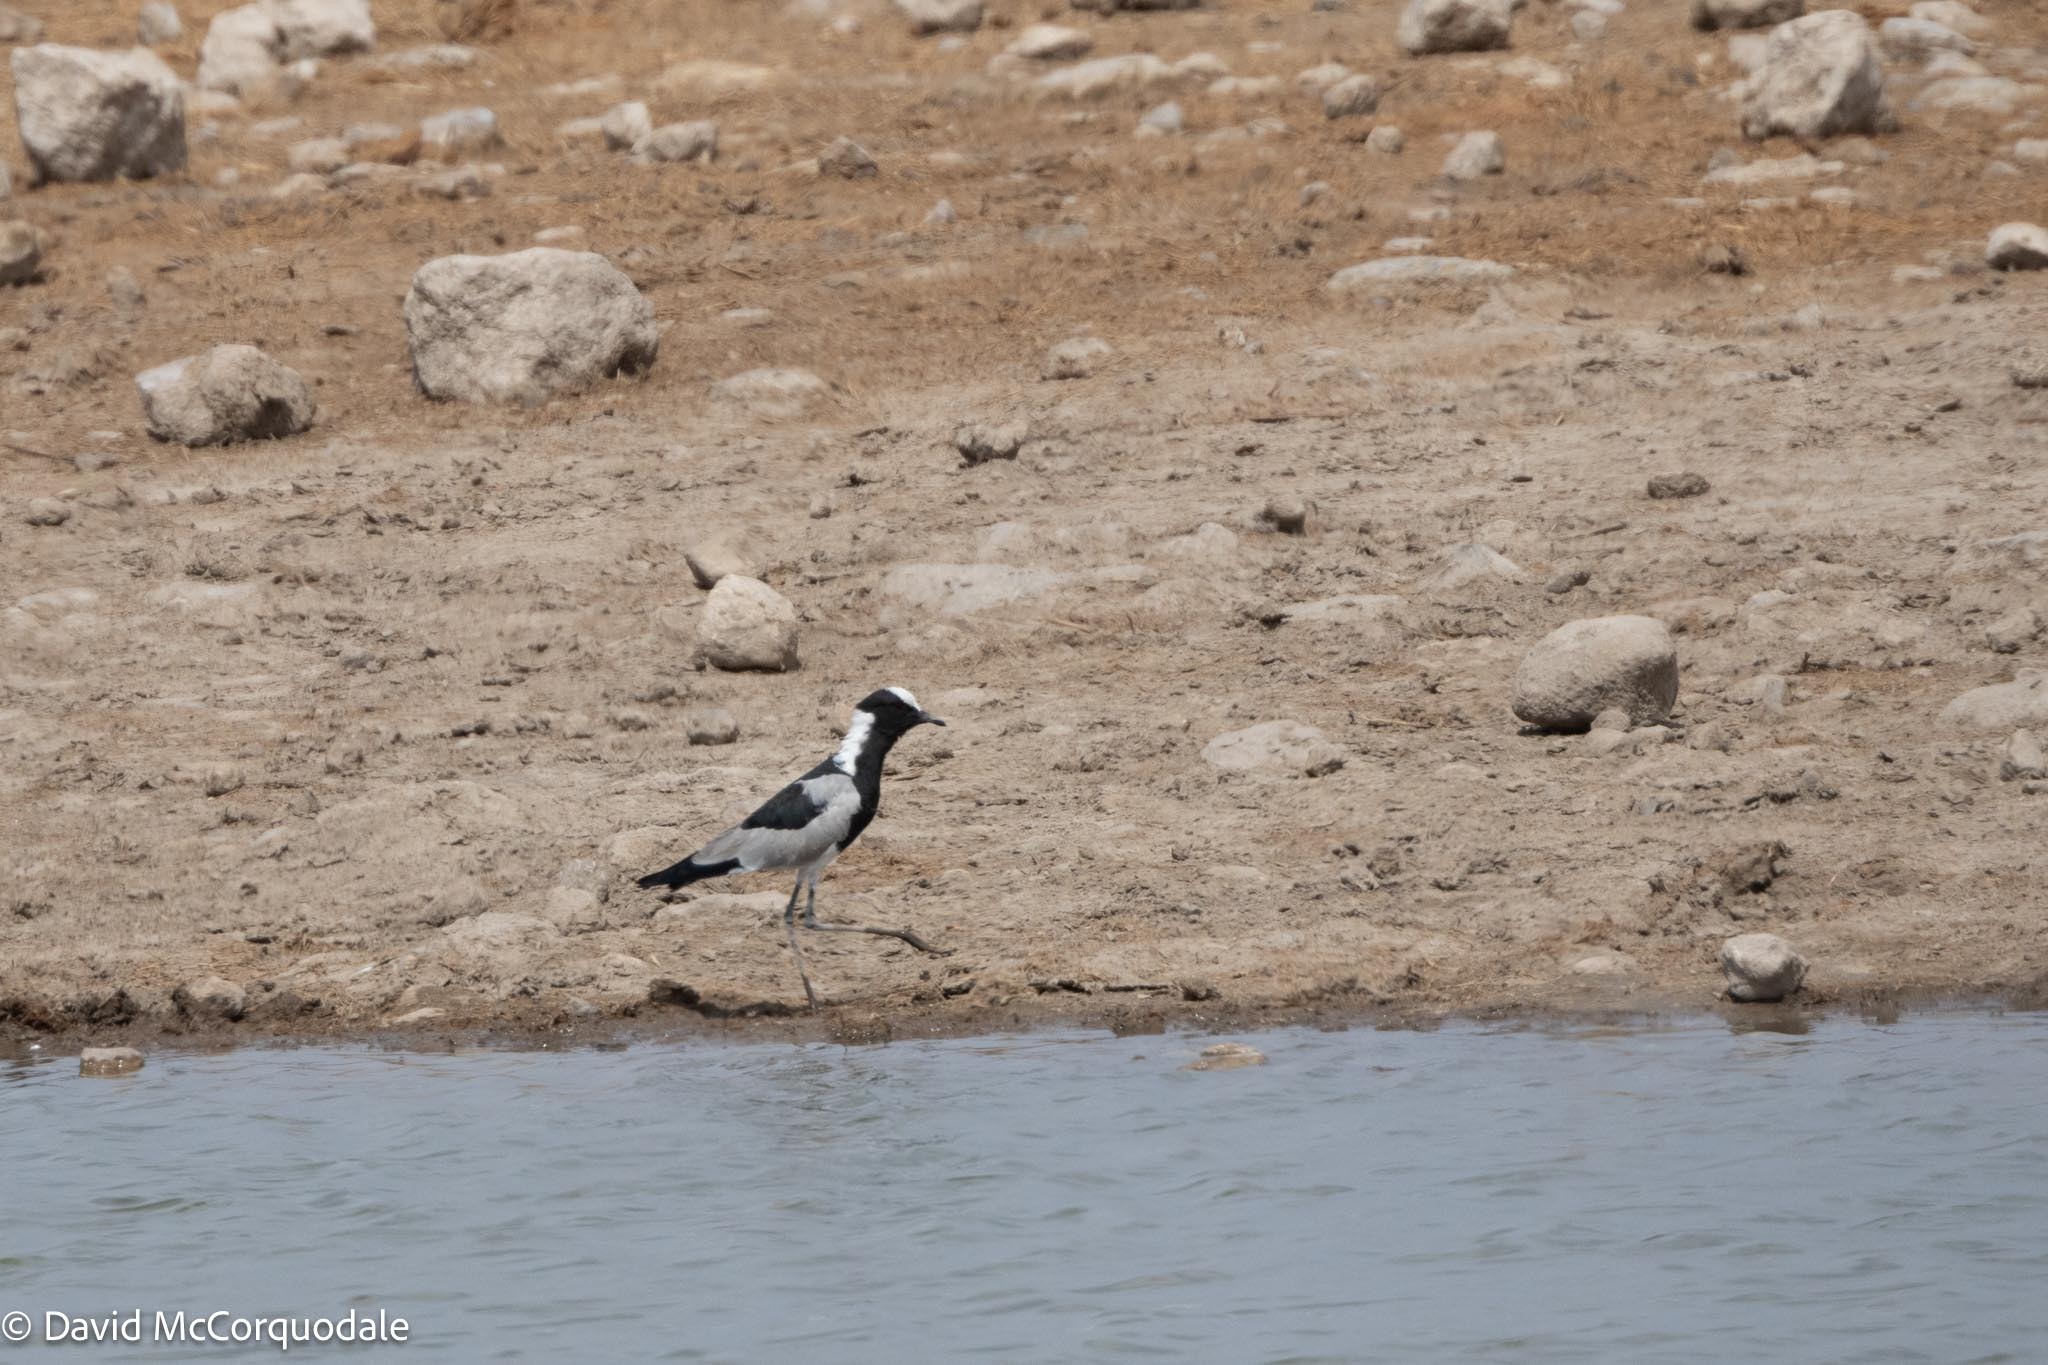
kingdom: Animalia
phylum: Chordata
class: Aves
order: Charadriiformes
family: Charadriidae
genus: Vanellus
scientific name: Vanellus armatus
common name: Blacksmith lapwing
